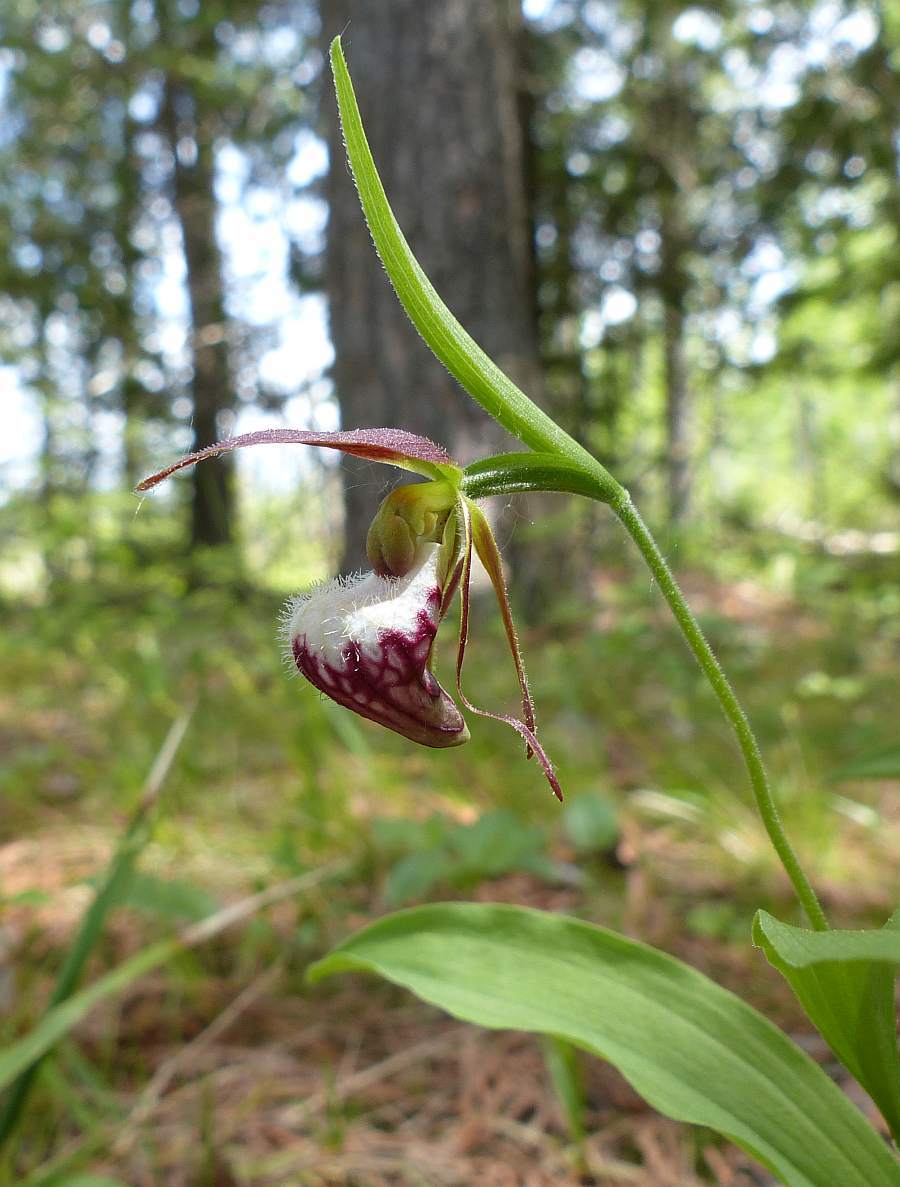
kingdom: Plantae
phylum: Tracheophyta
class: Liliopsida
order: Asparagales
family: Orchidaceae
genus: Cypripedium
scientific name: Cypripedium arietinum
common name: Ram's-head
